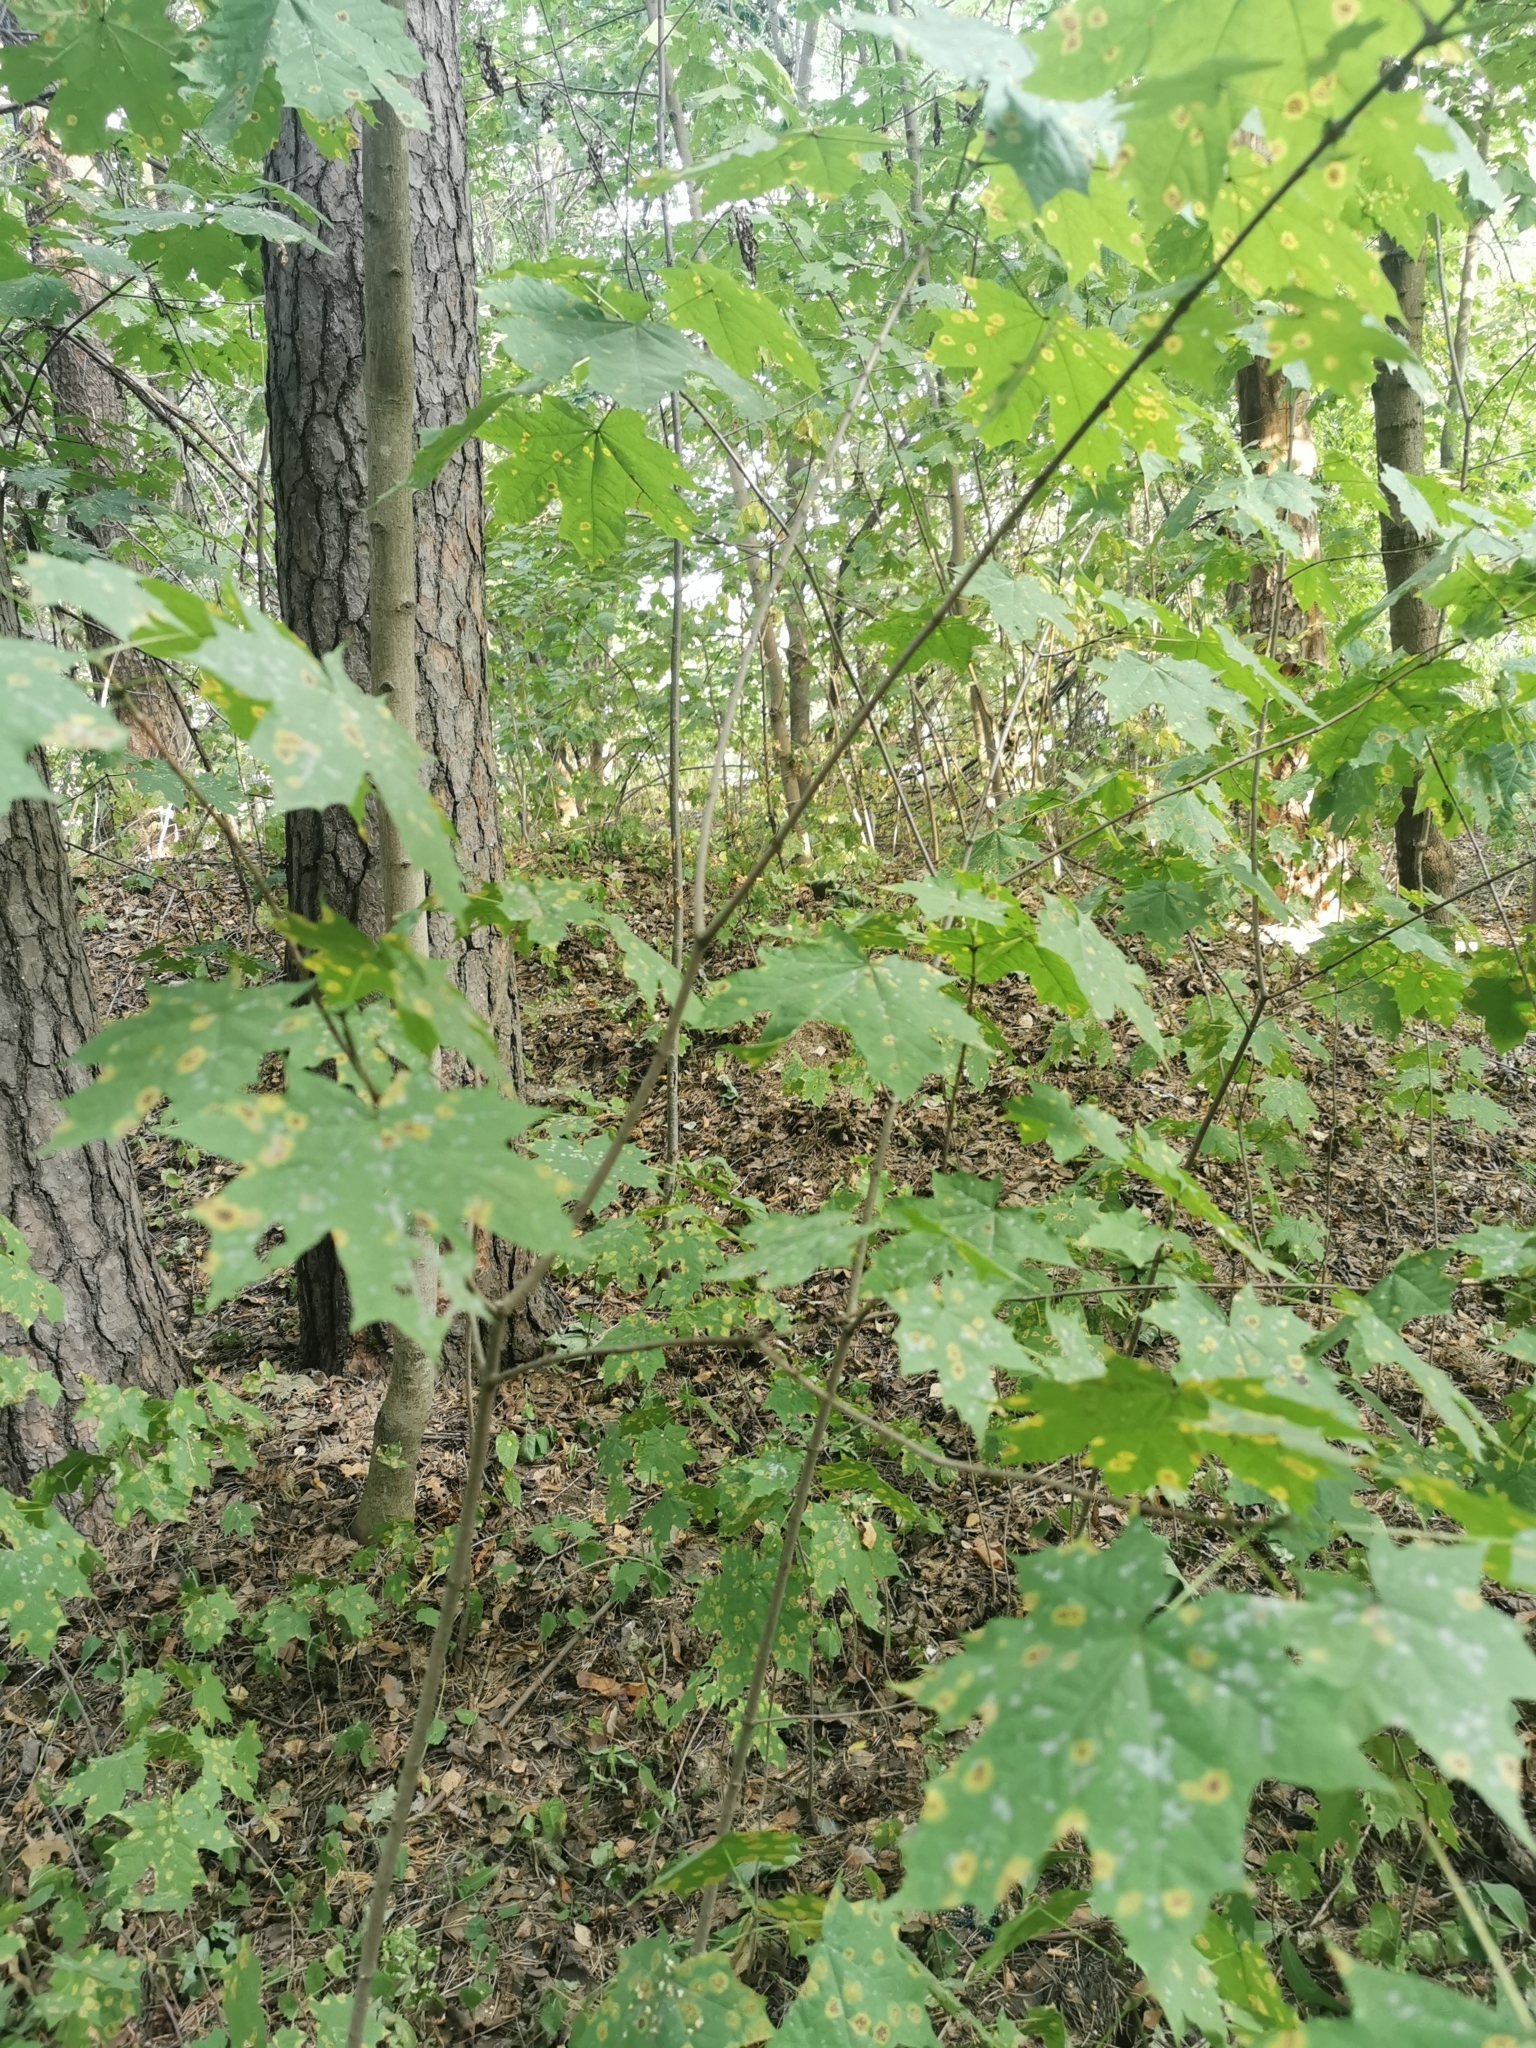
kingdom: Plantae
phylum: Tracheophyta
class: Magnoliopsida
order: Sapindales
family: Sapindaceae
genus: Acer
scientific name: Acer platanoides
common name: Norway maple
